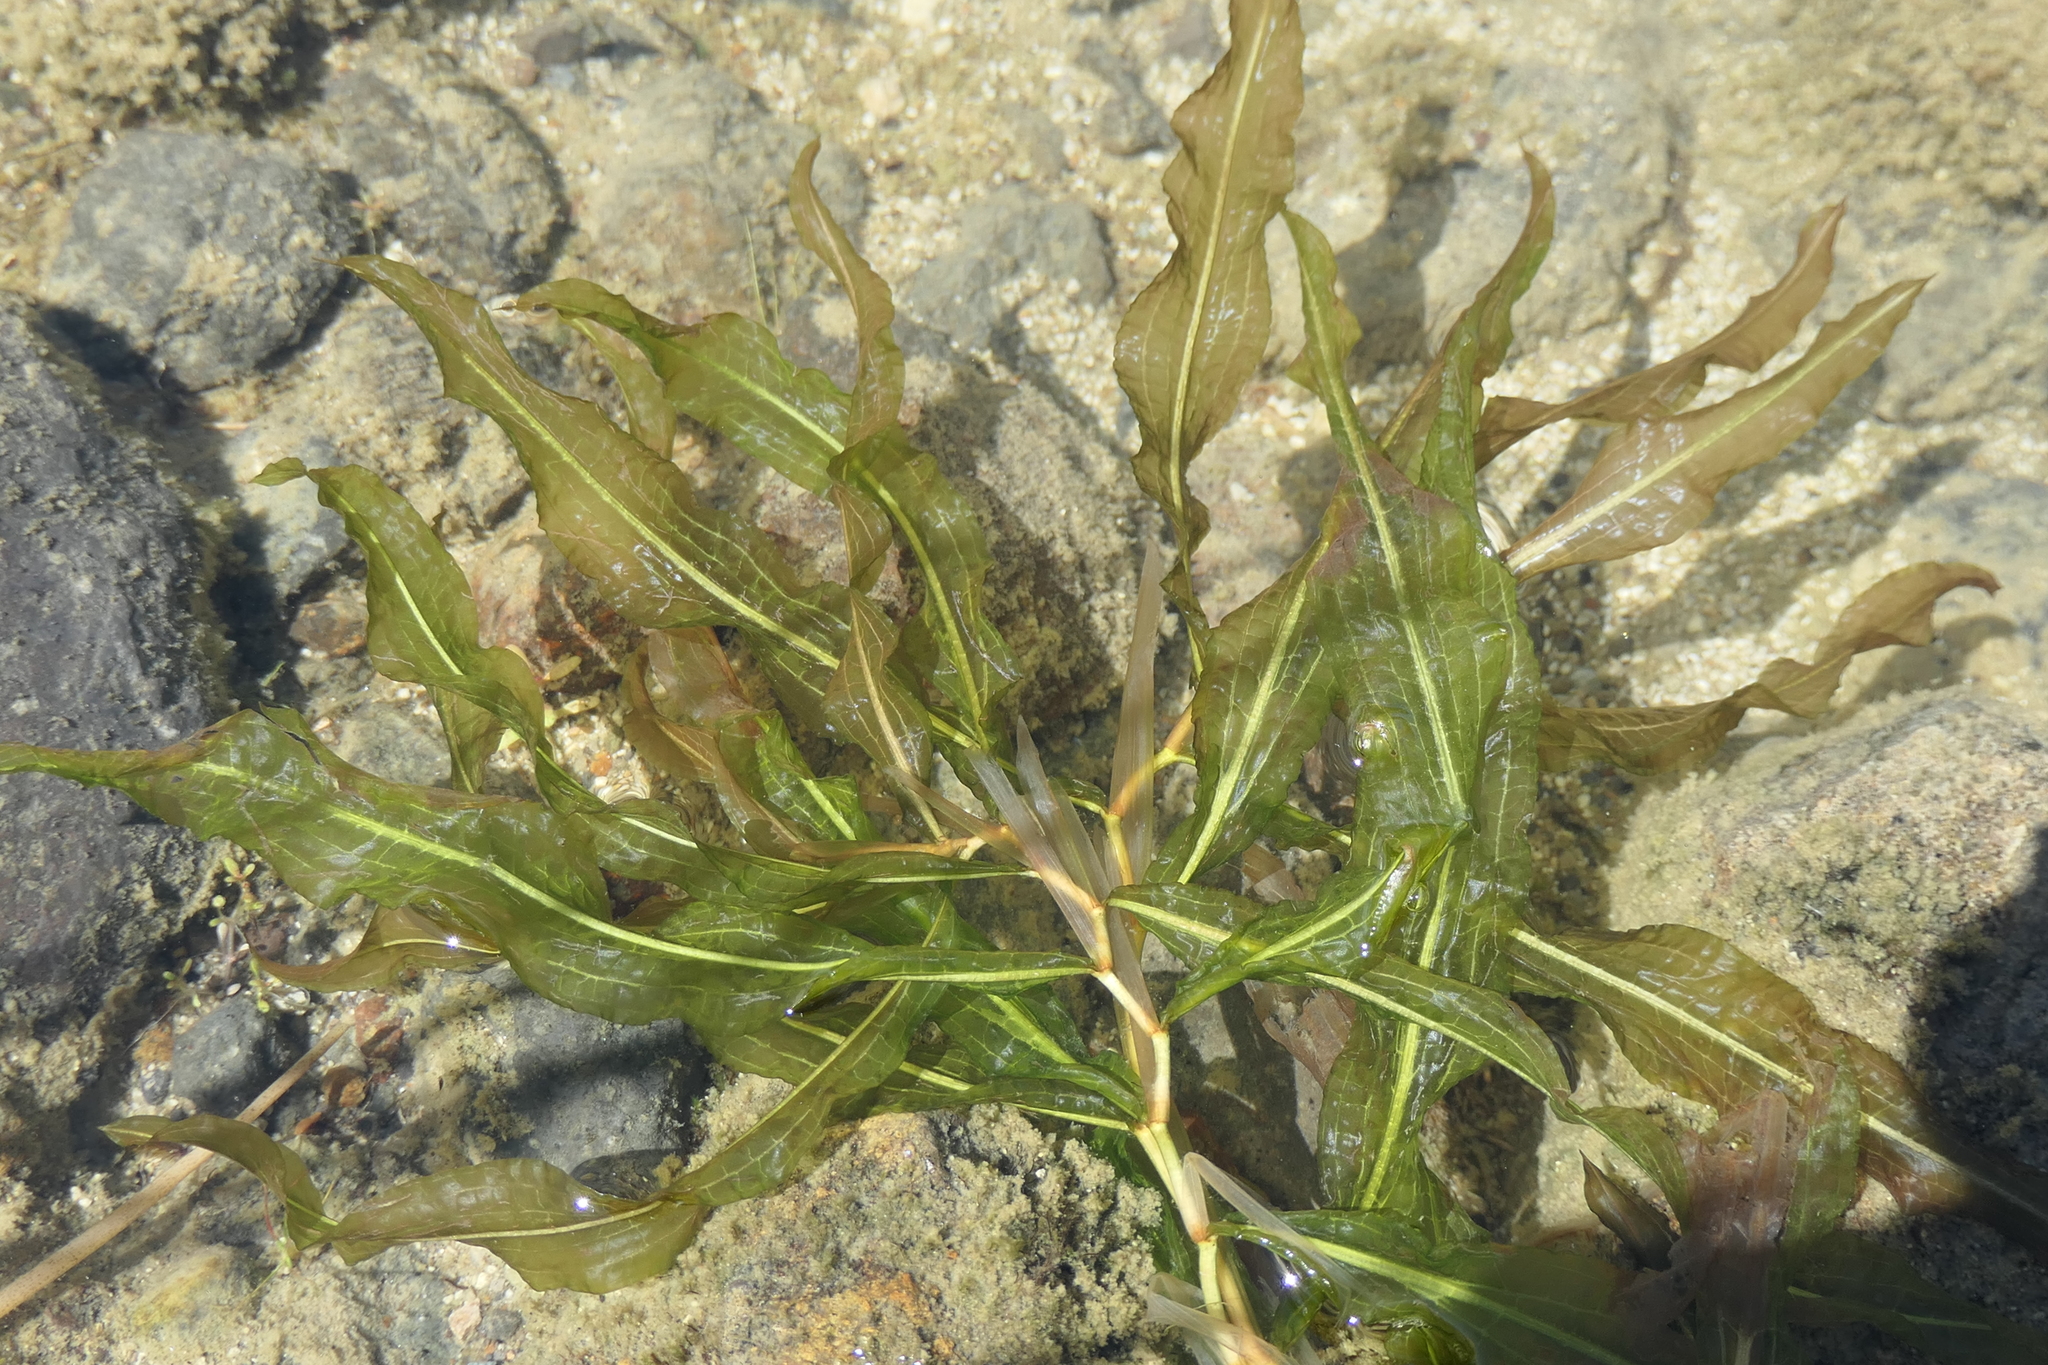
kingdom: Plantae
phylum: Tracheophyta
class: Liliopsida
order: Alismatales
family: Potamogetonaceae
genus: Potamogeton
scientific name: Potamogeton schweinfurthii
